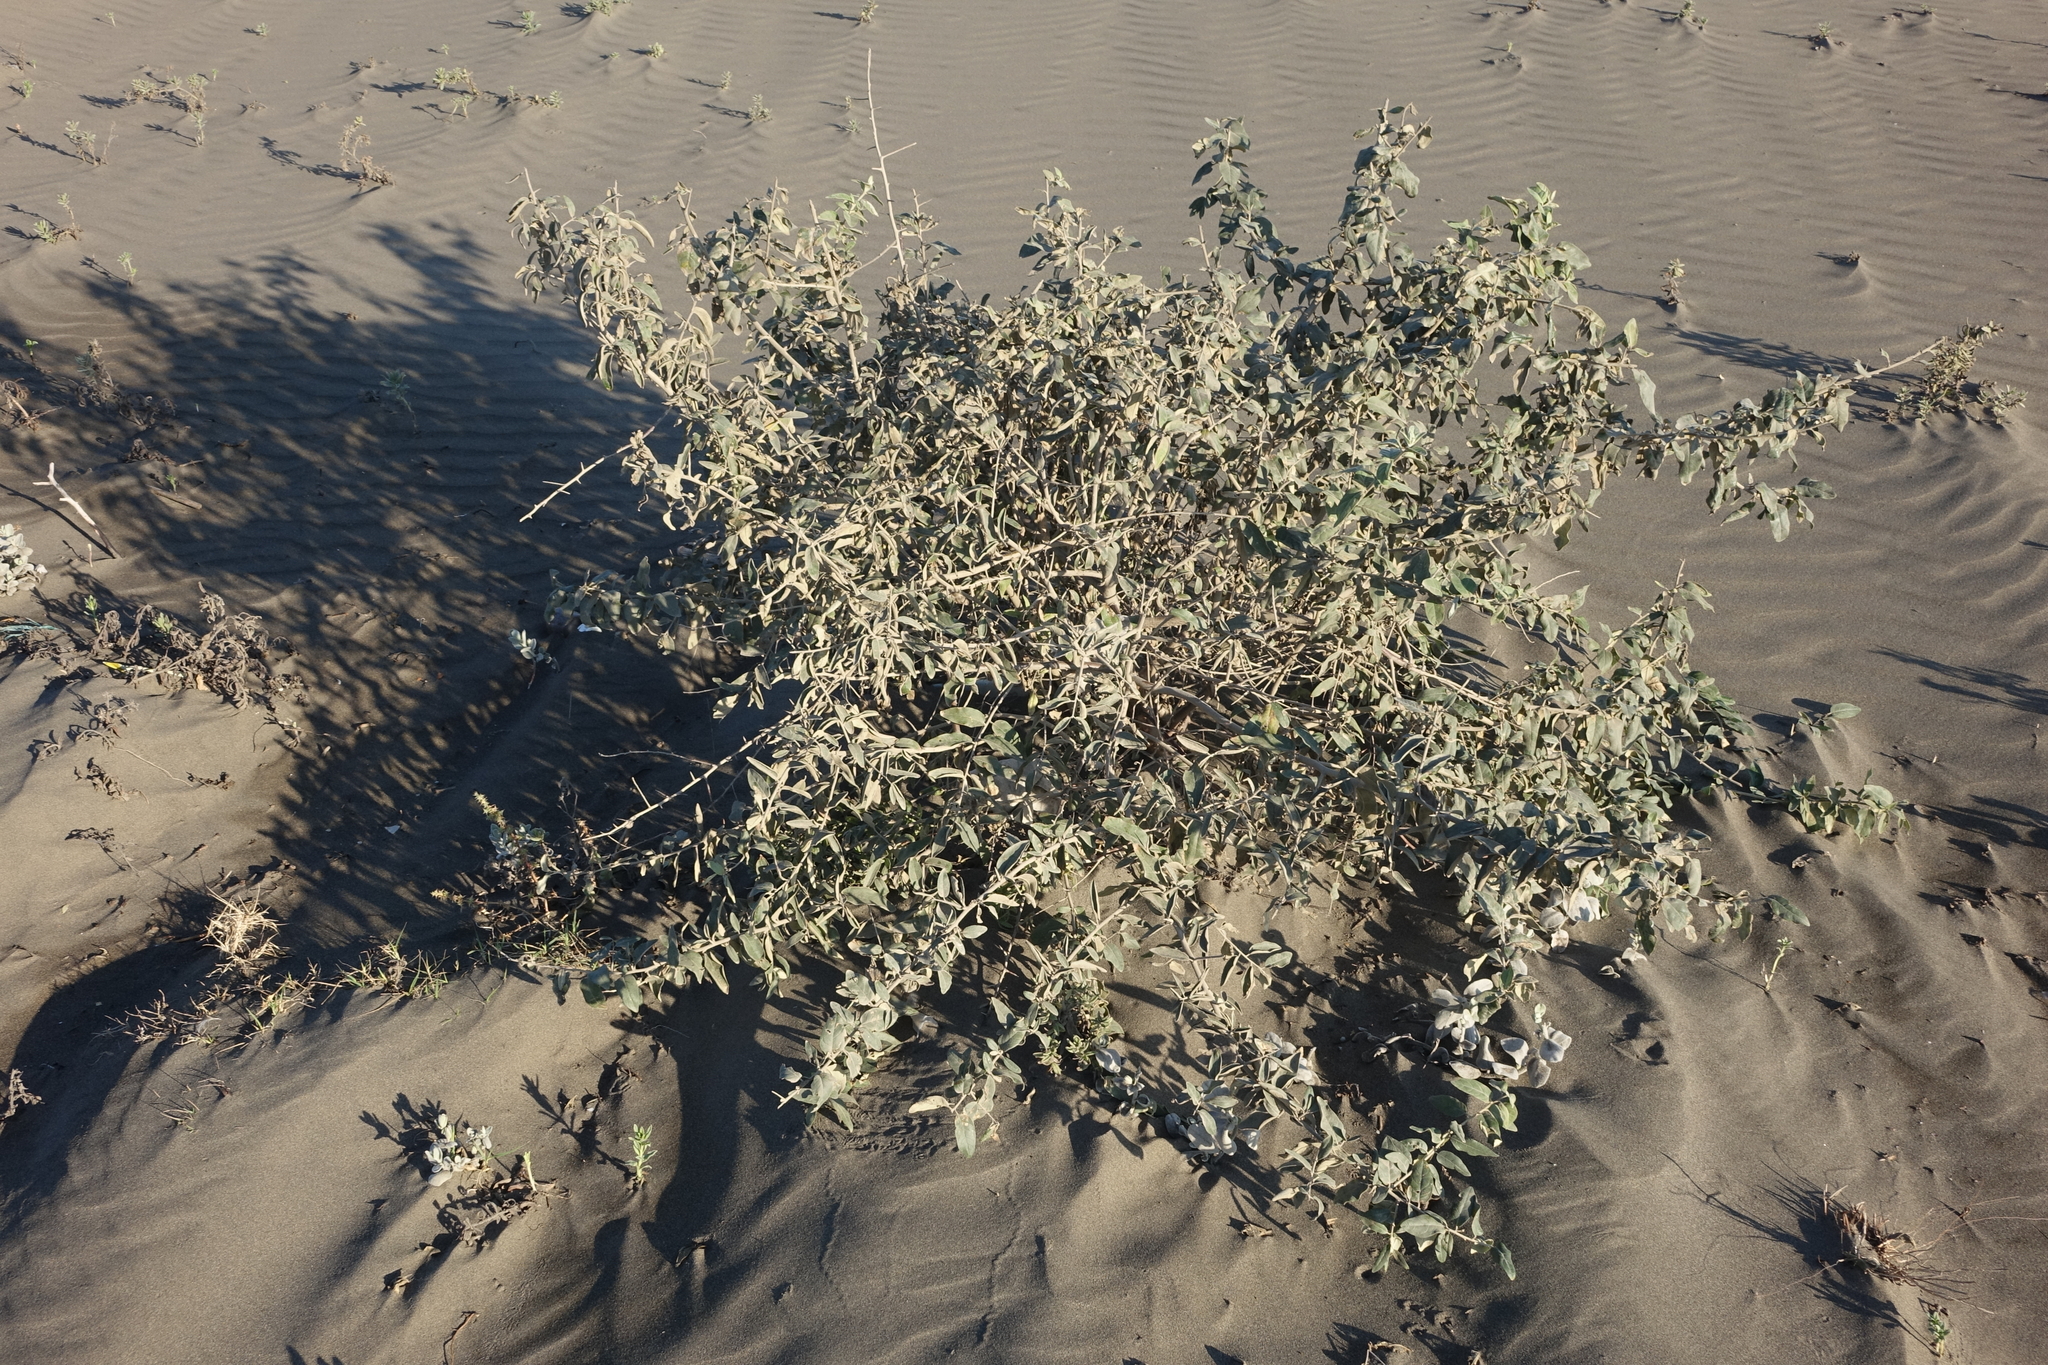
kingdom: Plantae
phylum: Tracheophyta
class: Magnoliopsida
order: Rosales
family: Elaeagnaceae
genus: Elaeagnus
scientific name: Elaeagnus angustifolia
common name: Russian olive
